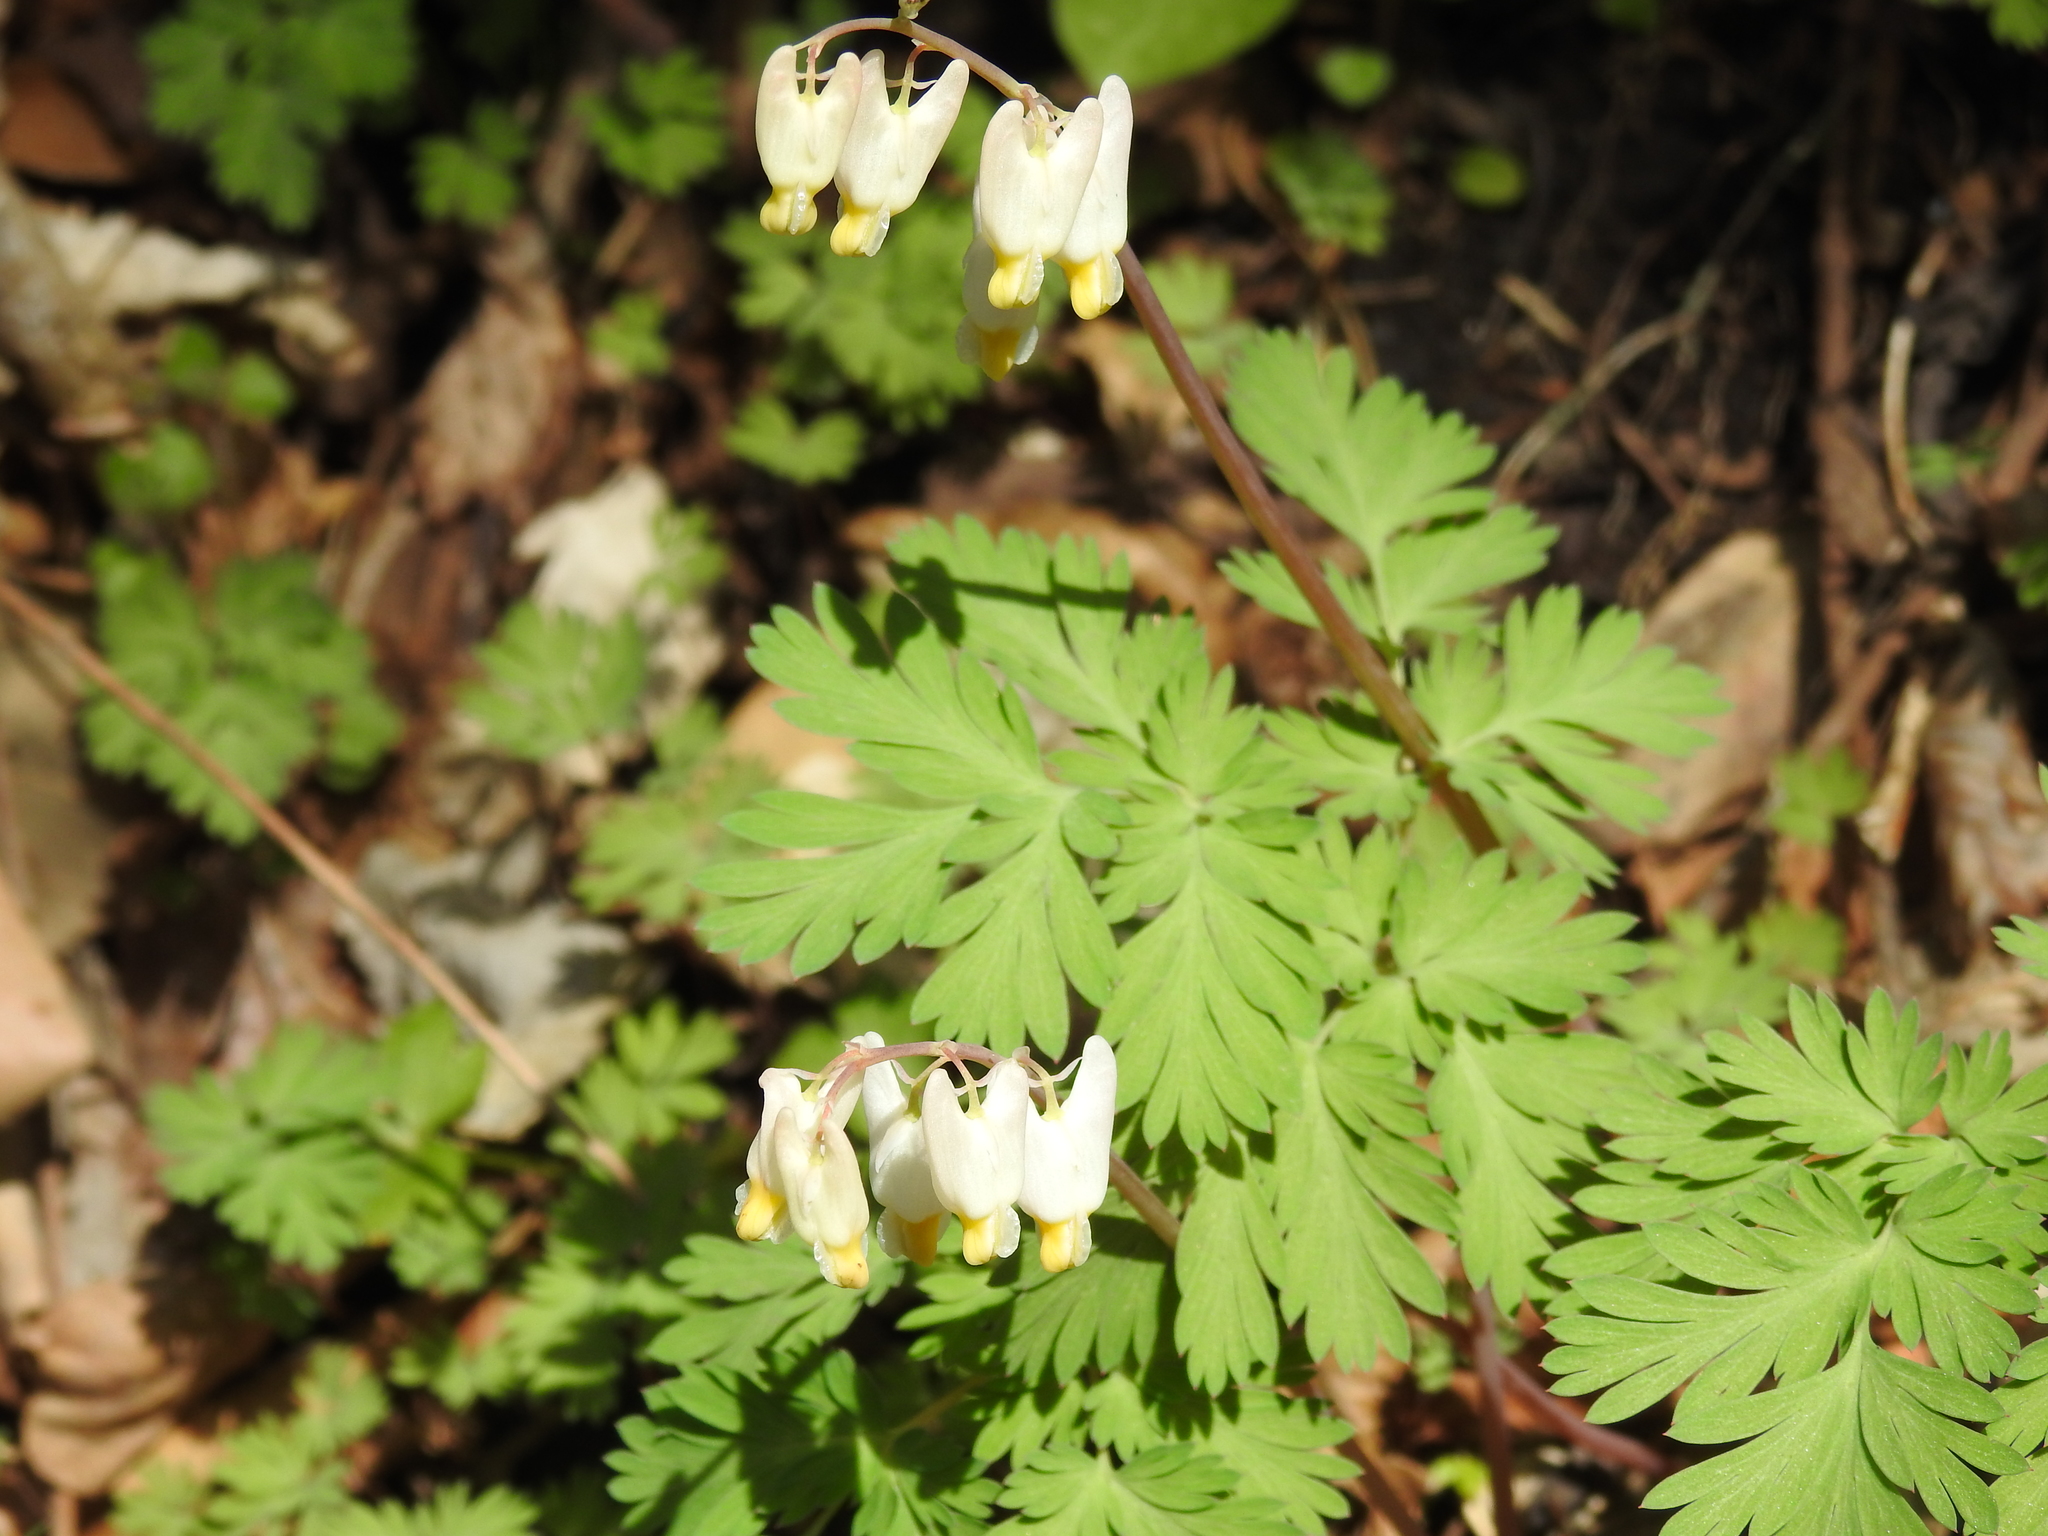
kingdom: Plantae
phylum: Tracheophyta
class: Magnoliopsida
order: Ranunculales
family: Papaveraceae
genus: Dicentra
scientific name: Dicentra cucullaria
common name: Dutchman's breeches
